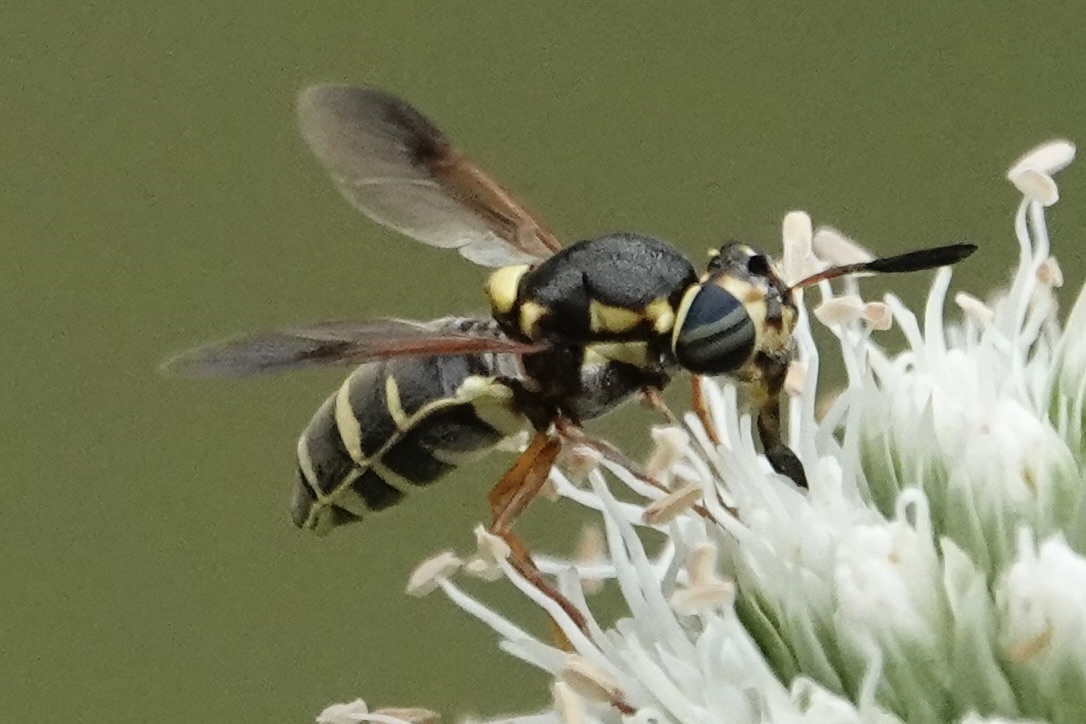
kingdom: Animalia
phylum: Arthropoda
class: Insecta
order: Diptera
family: Stratiomyidae
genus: Hoplitimyia
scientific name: Hoplitimyia constans
